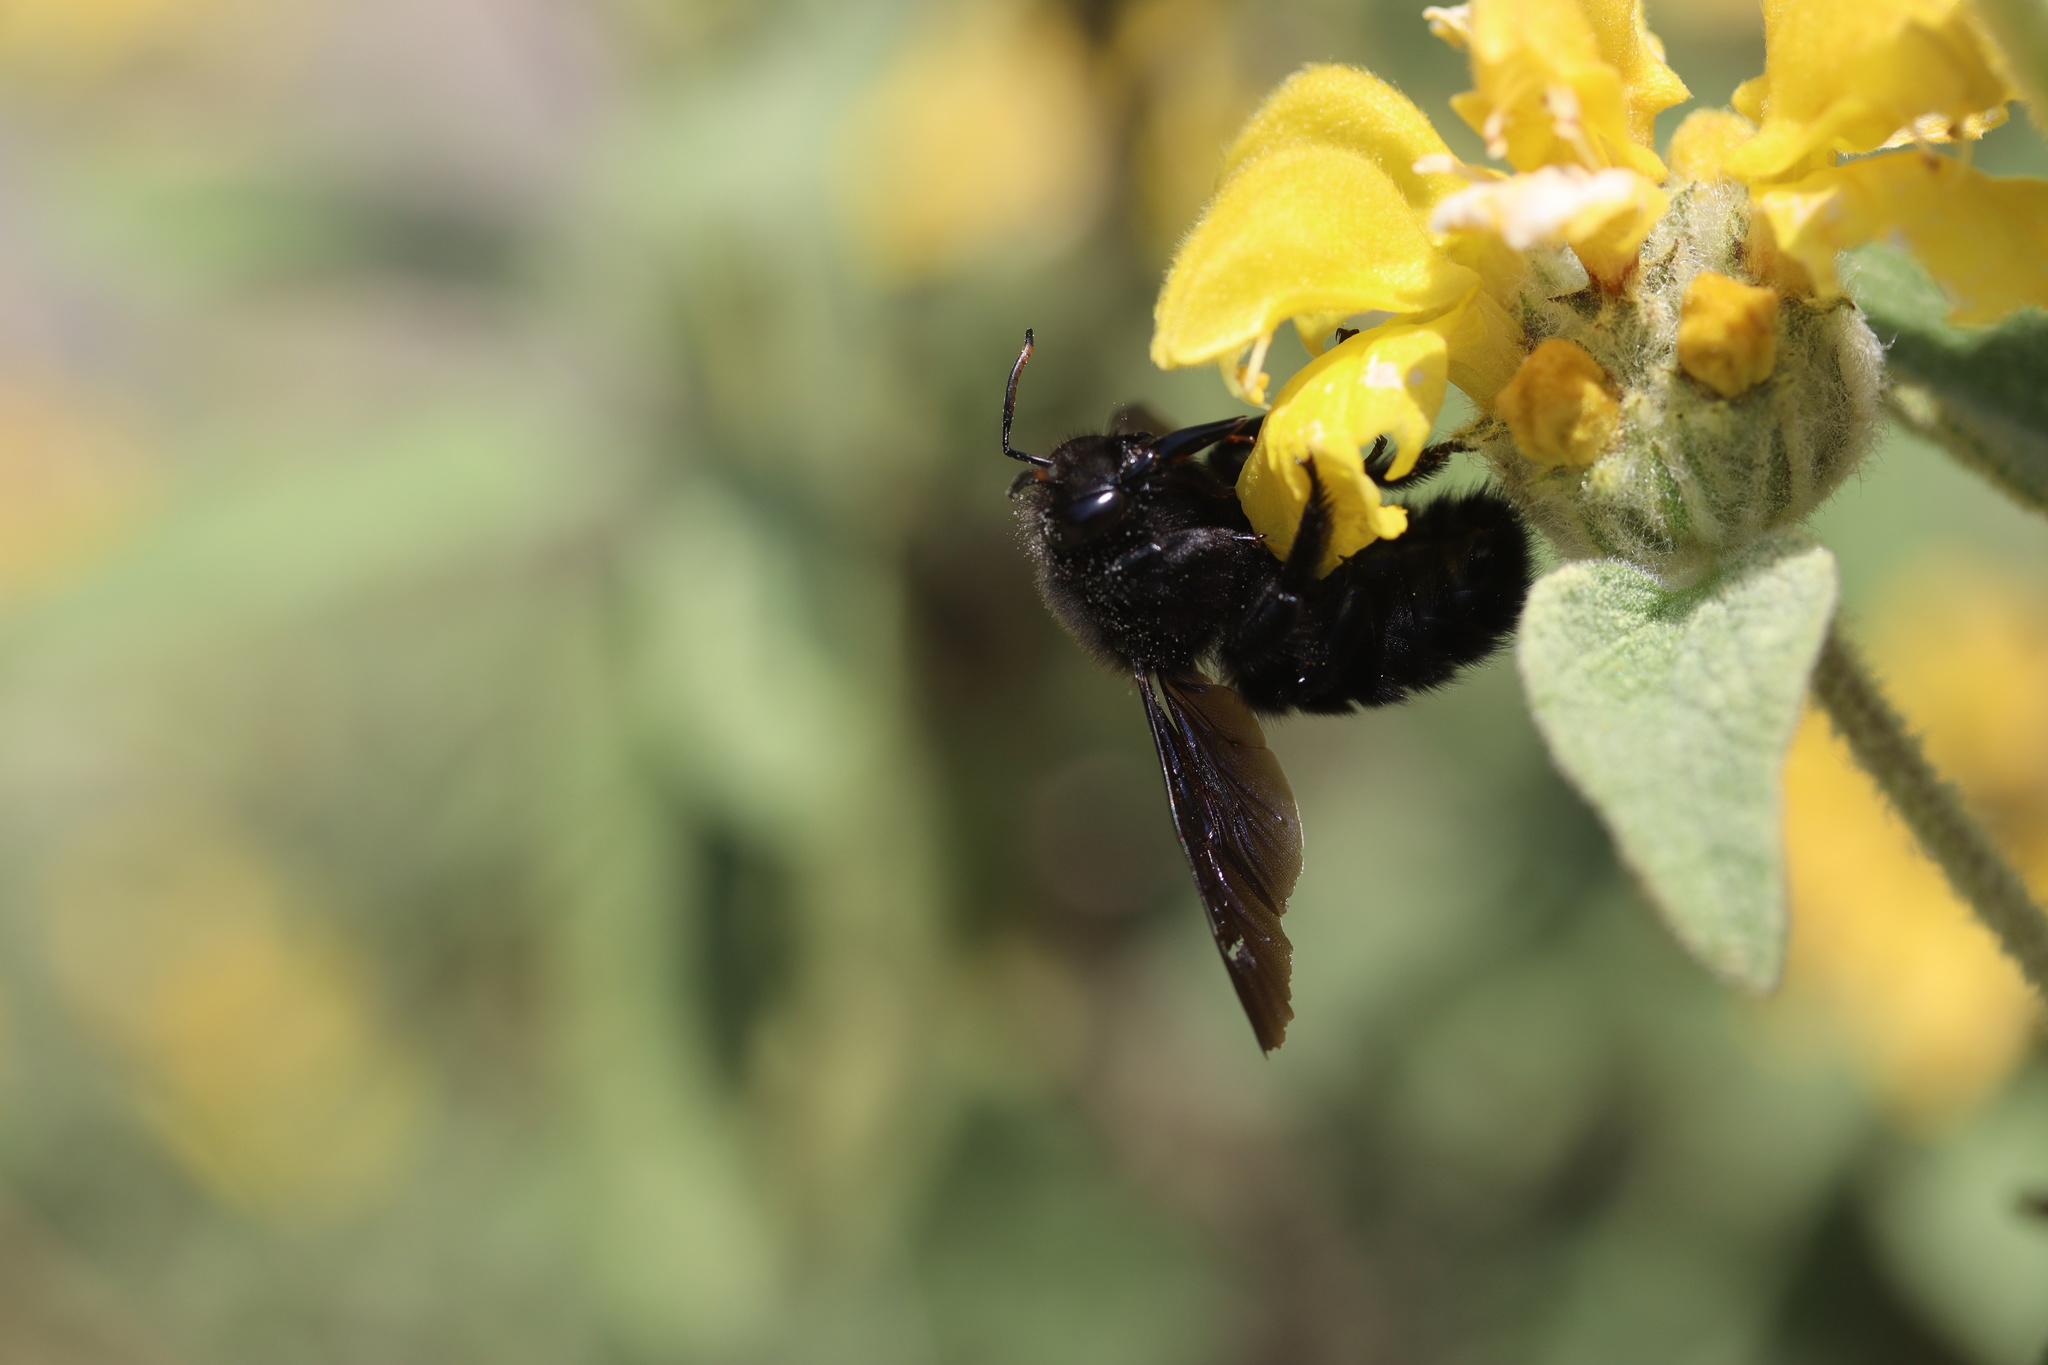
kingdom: Animalia
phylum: Arthropoda
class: Insecta
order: Hymenoptera
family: Apidae
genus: Xylocopa
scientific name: Xylocopa violacea
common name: Violet carpenter bee
